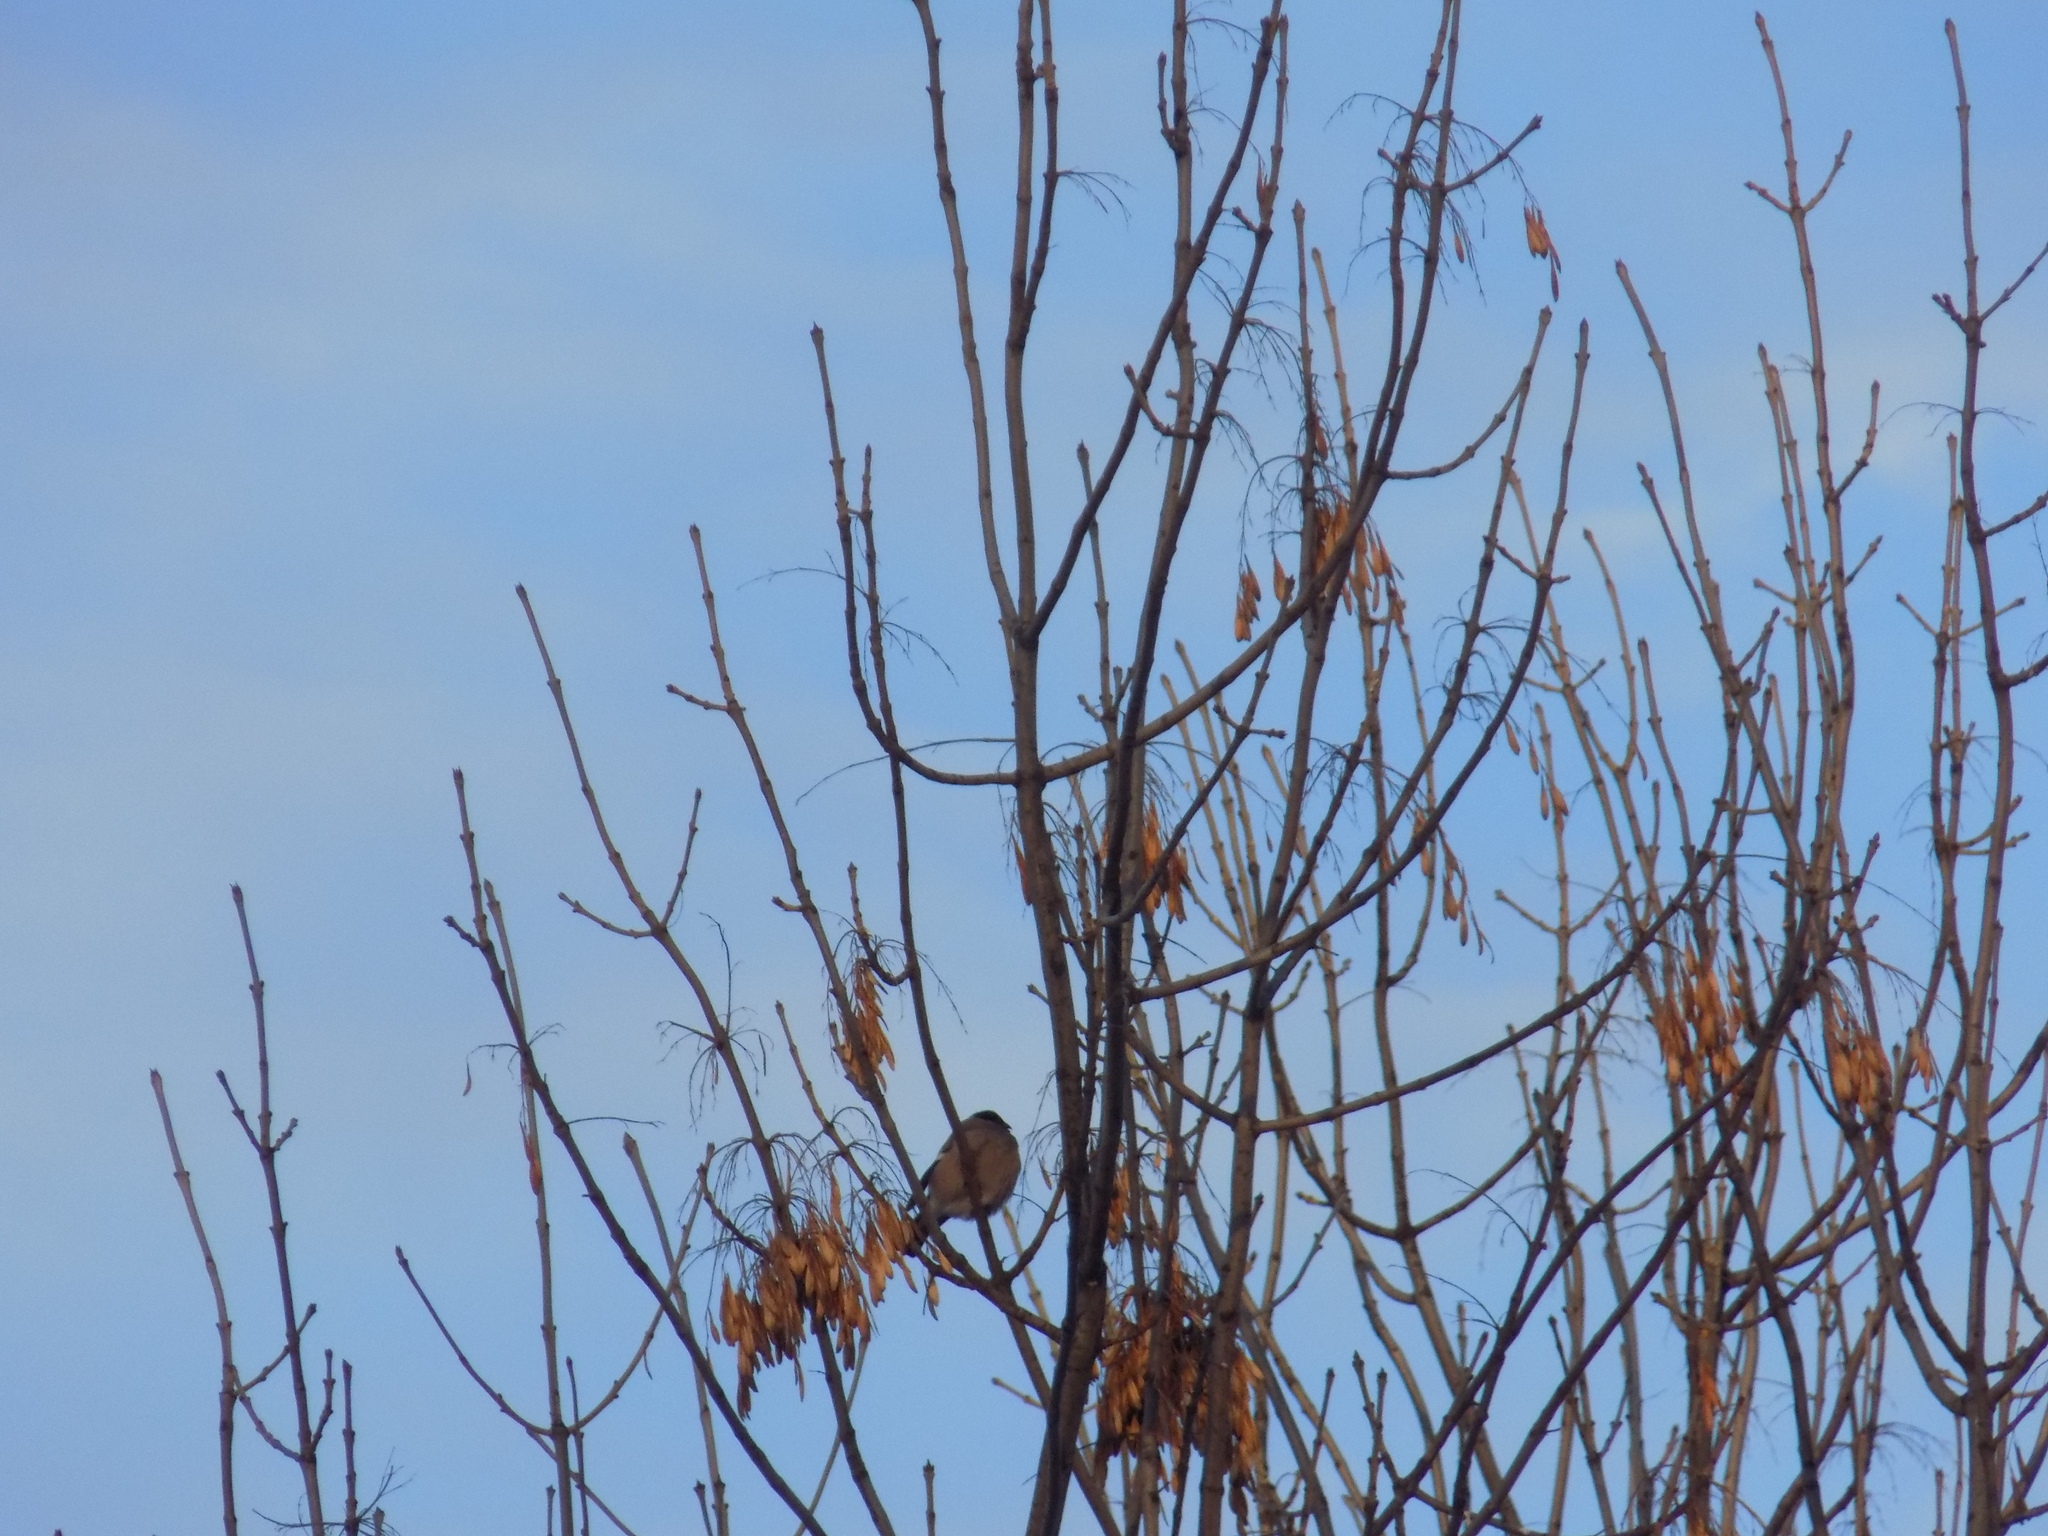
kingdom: Animalia
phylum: Chordata
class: Aves
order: Passeriformes
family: Fringillidae
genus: Pyrrhula
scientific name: Pyrrhula pyrrhula
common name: Eurasian bullfinch
